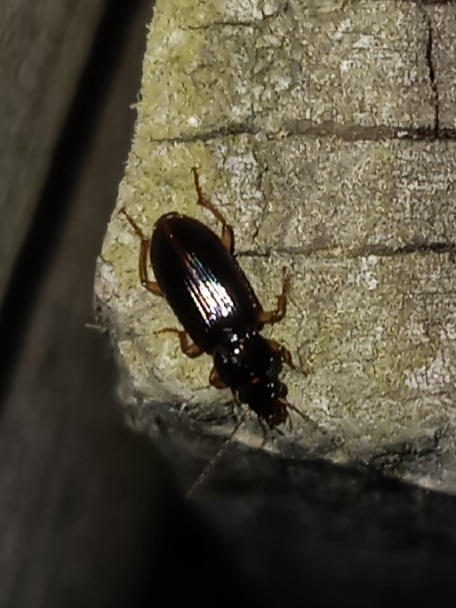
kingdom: Animalia
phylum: Arthropoda
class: Insecta
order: Coleoptera
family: Carabidae
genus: Stenolophus
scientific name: Stenolophus ochropezus
